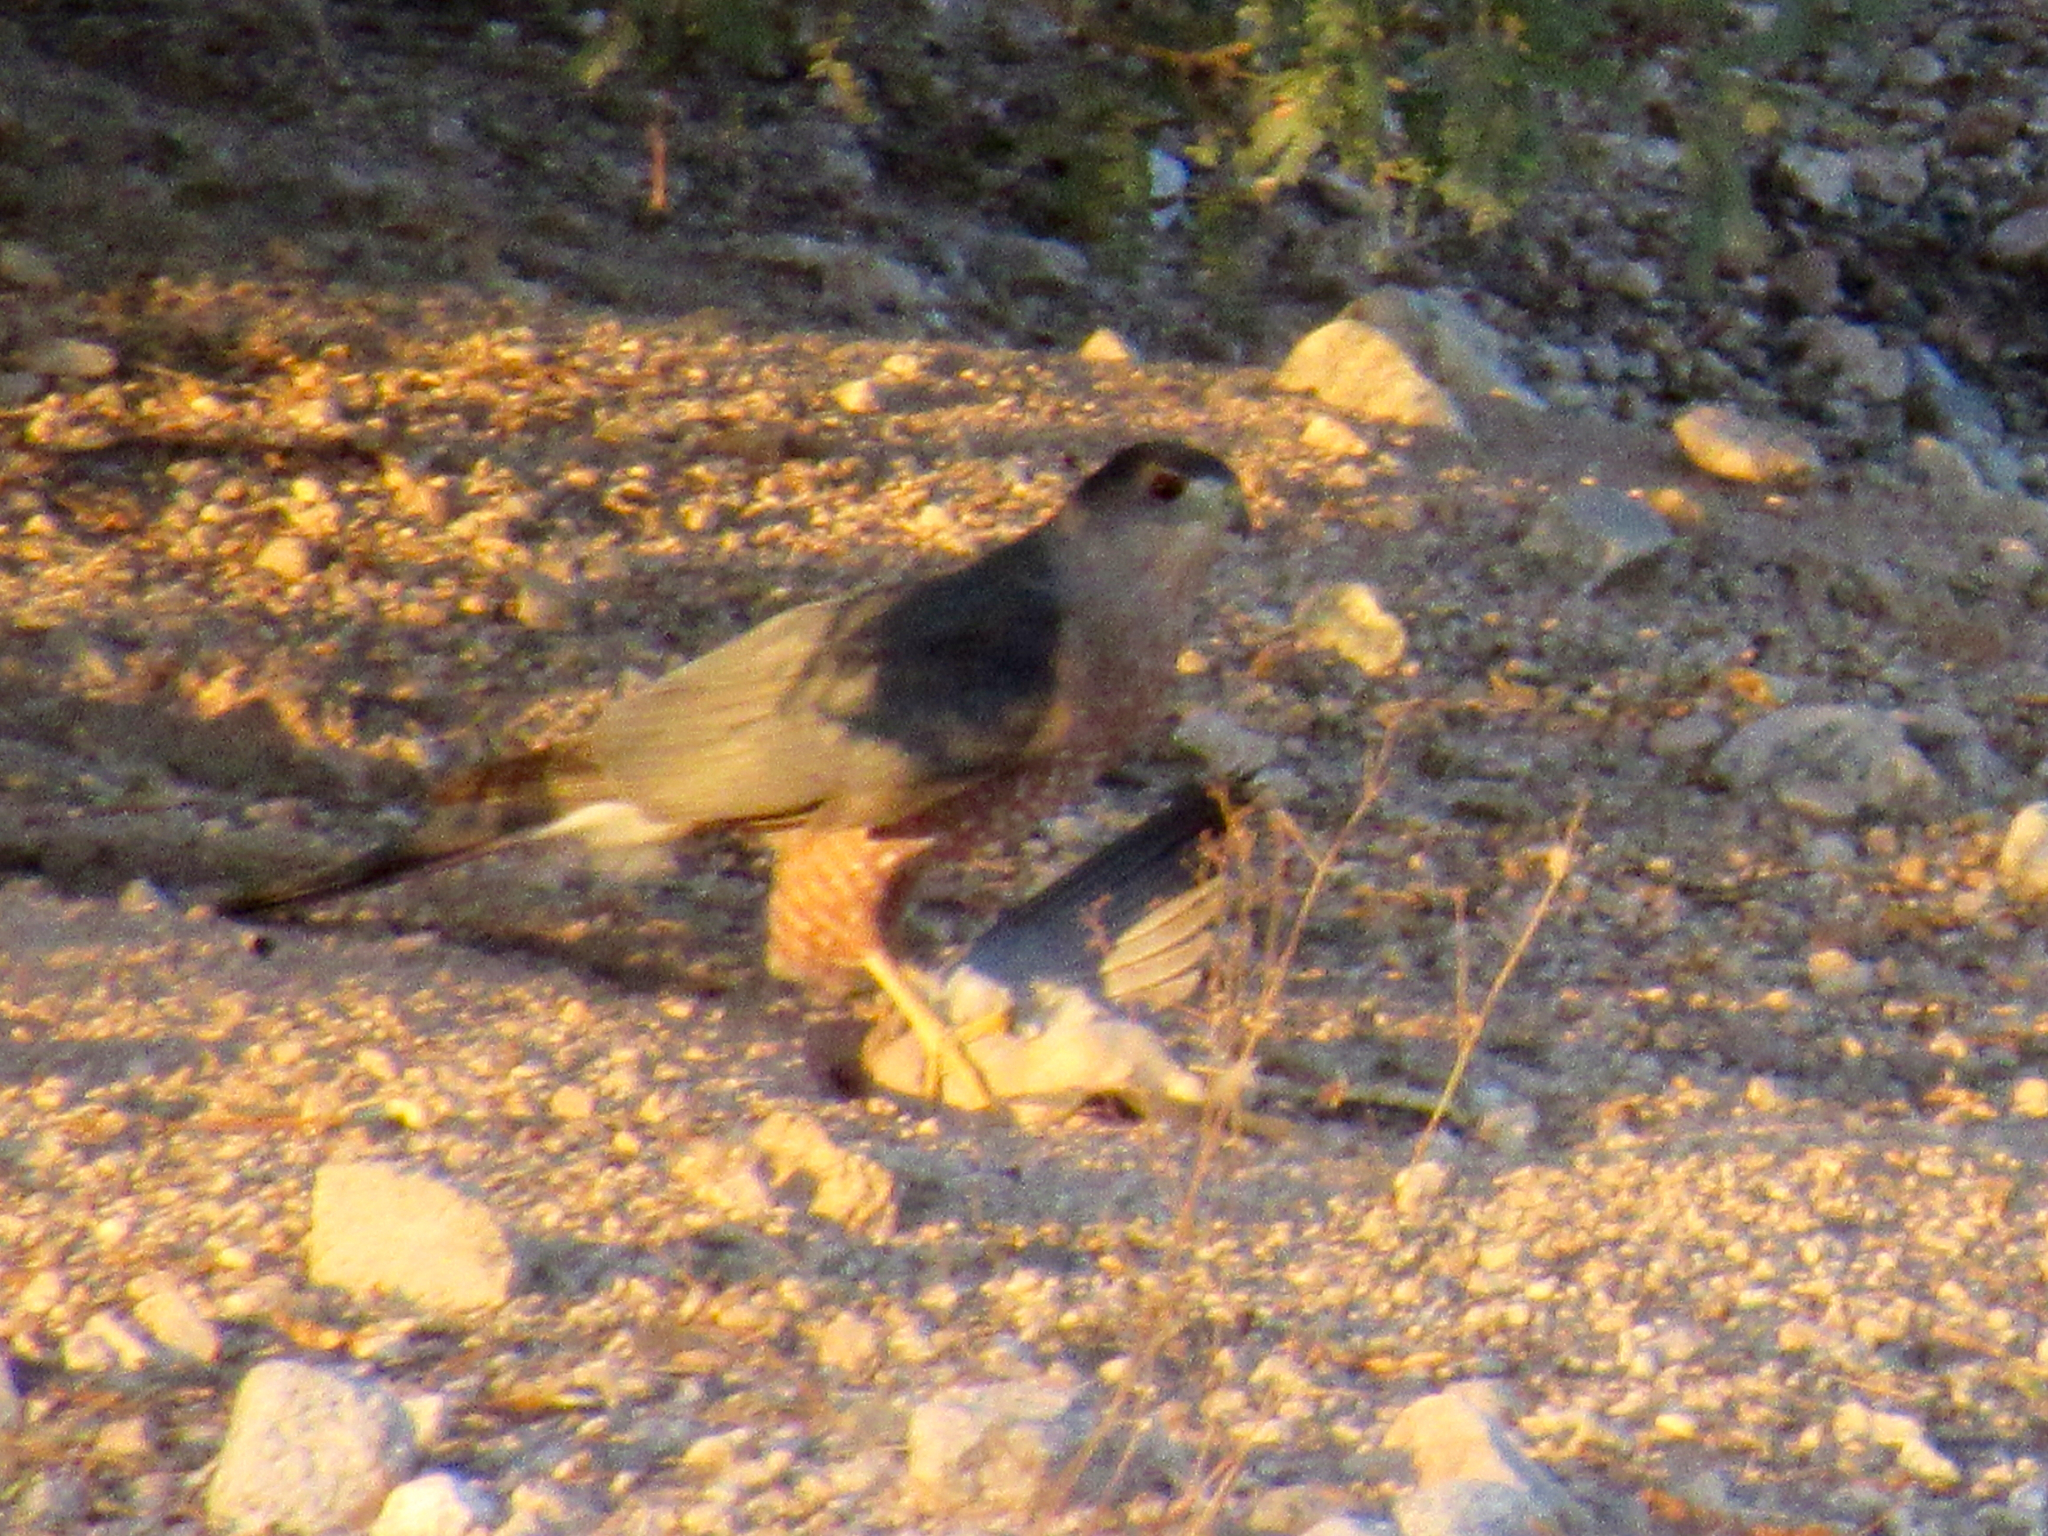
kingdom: Animalia
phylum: Chordata
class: Aves
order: Accipitriformes
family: Accipitridae
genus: Accipiter
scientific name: Accipiter cooperii
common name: Cooper's hawk
